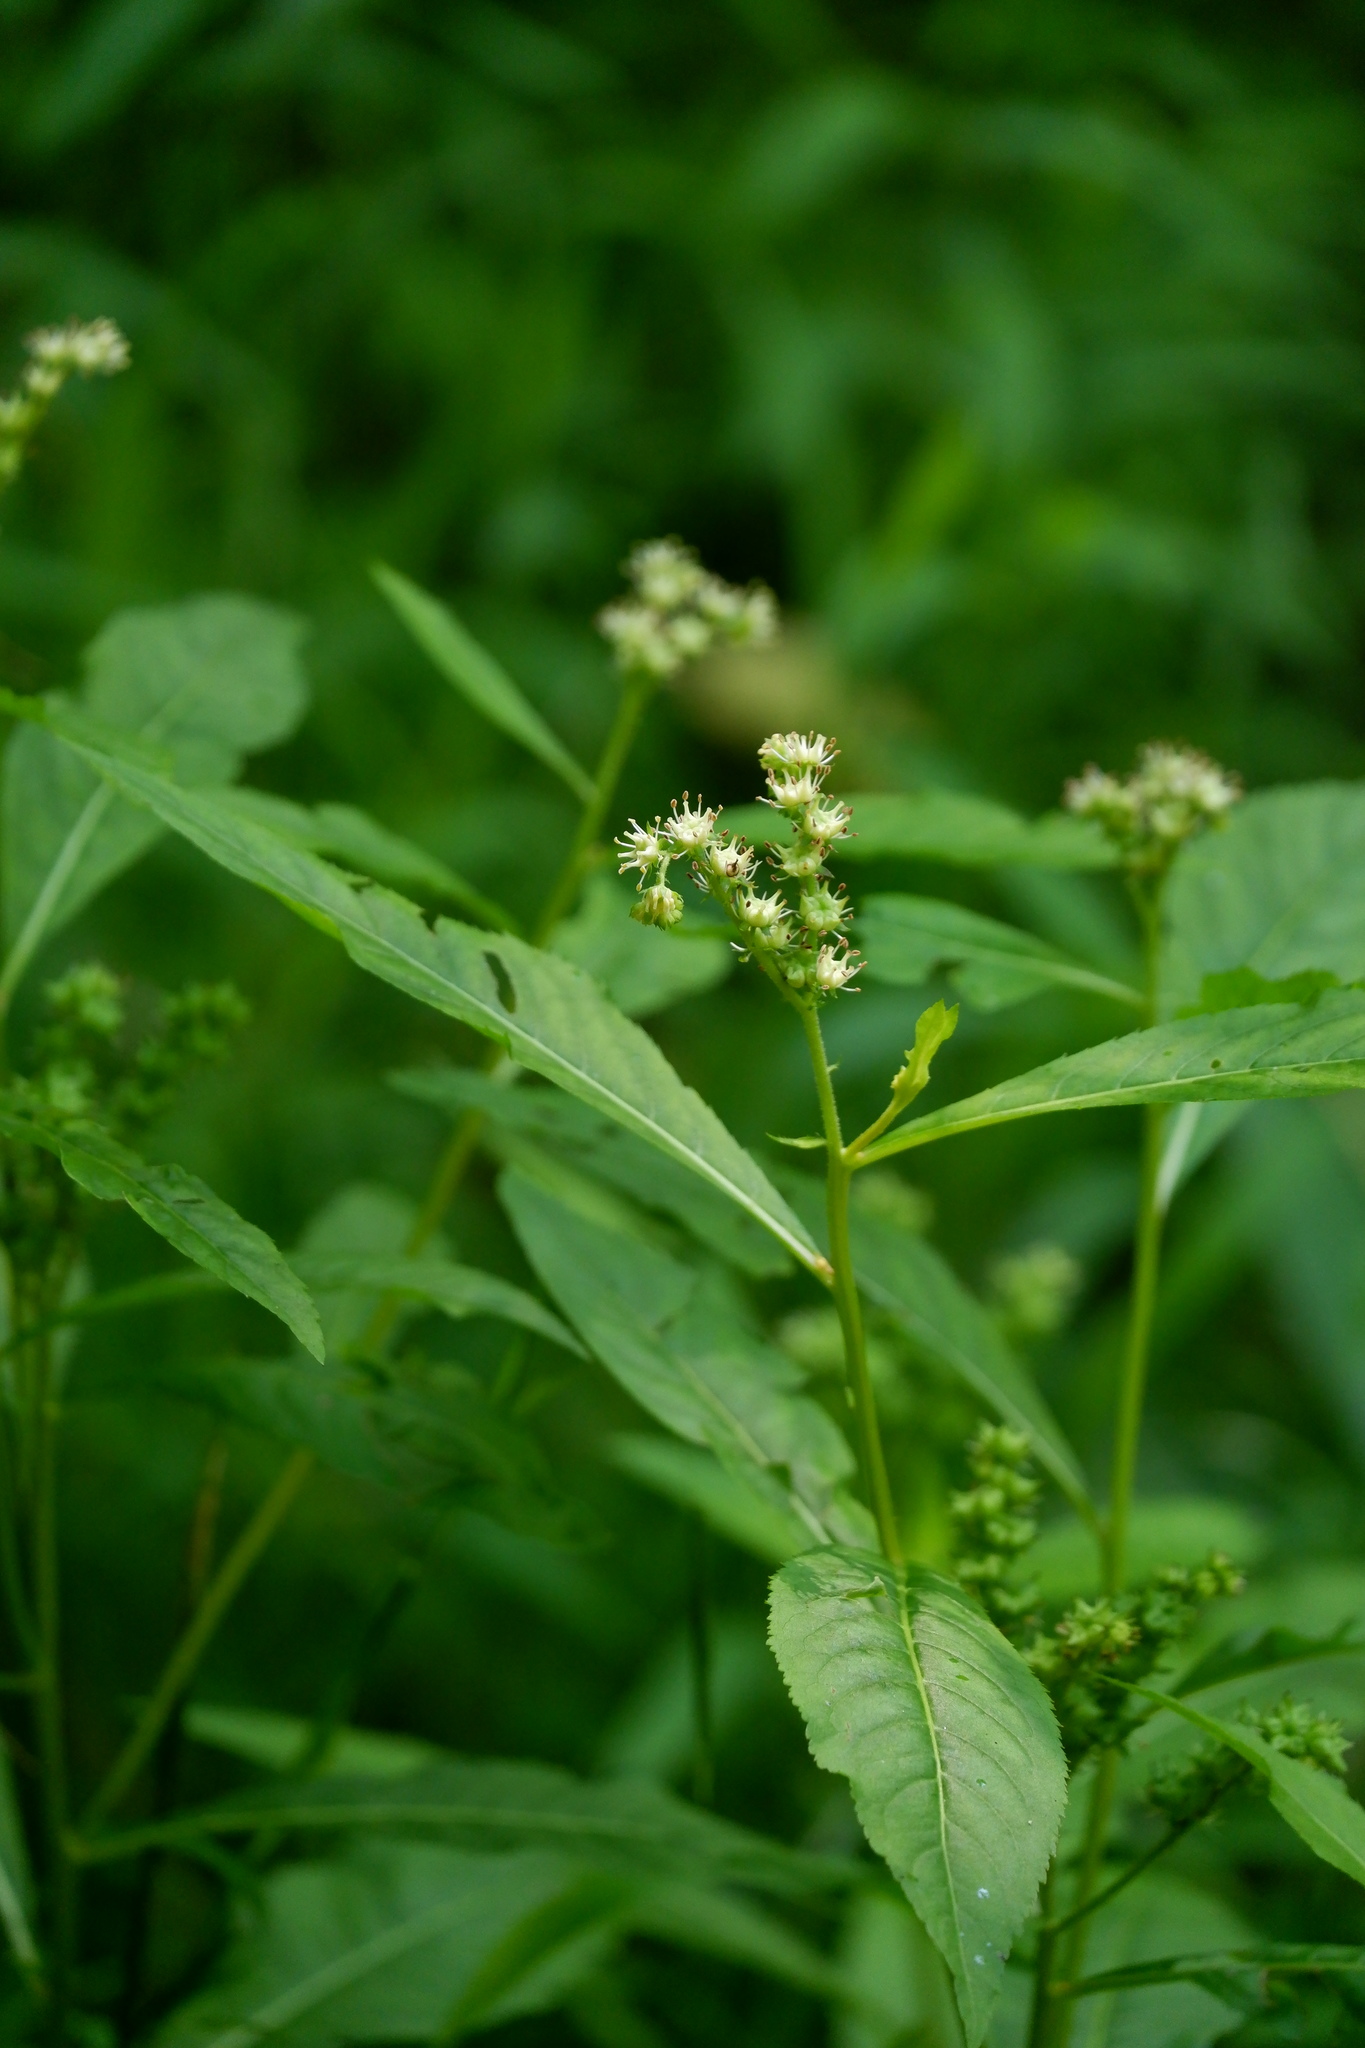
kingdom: Plantae
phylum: Tracheophyta
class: Magnoliopsida
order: Saxifragales
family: Penthoraceae
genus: Penthorum
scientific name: Penthorum sedoides
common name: Ditch stonecrop
